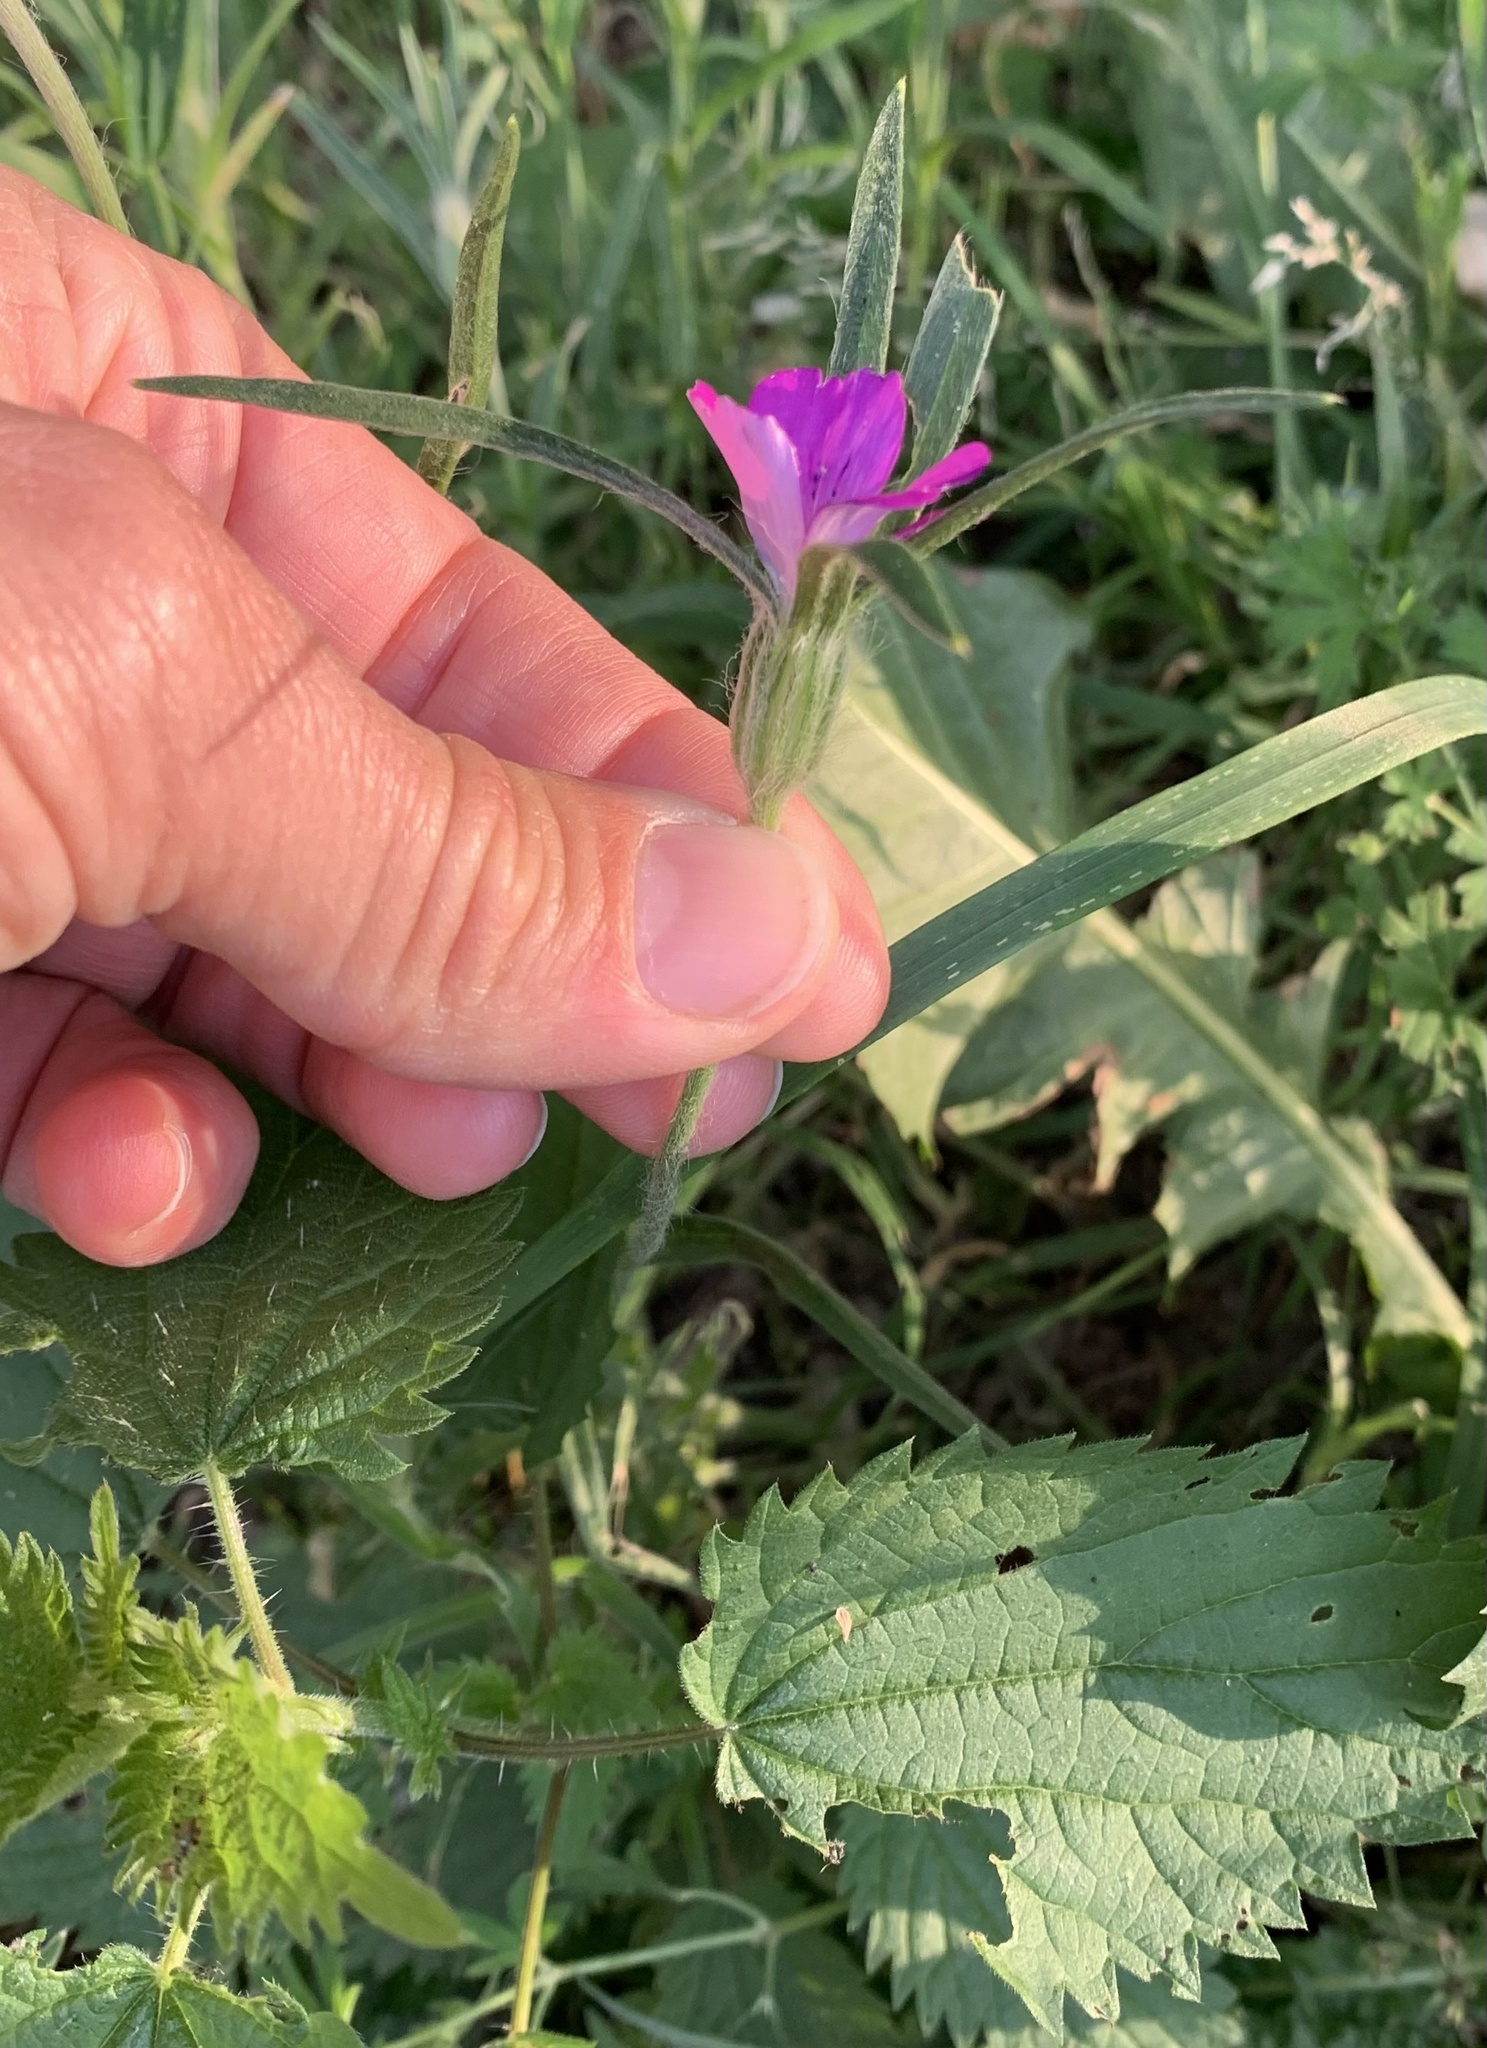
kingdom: Plantae
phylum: Tracheophyta
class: Magnoliopsida
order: Caryophyllales
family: Caryophyllaceae
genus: Agrostemma
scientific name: Agrostemma githago
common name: Common corncockle
